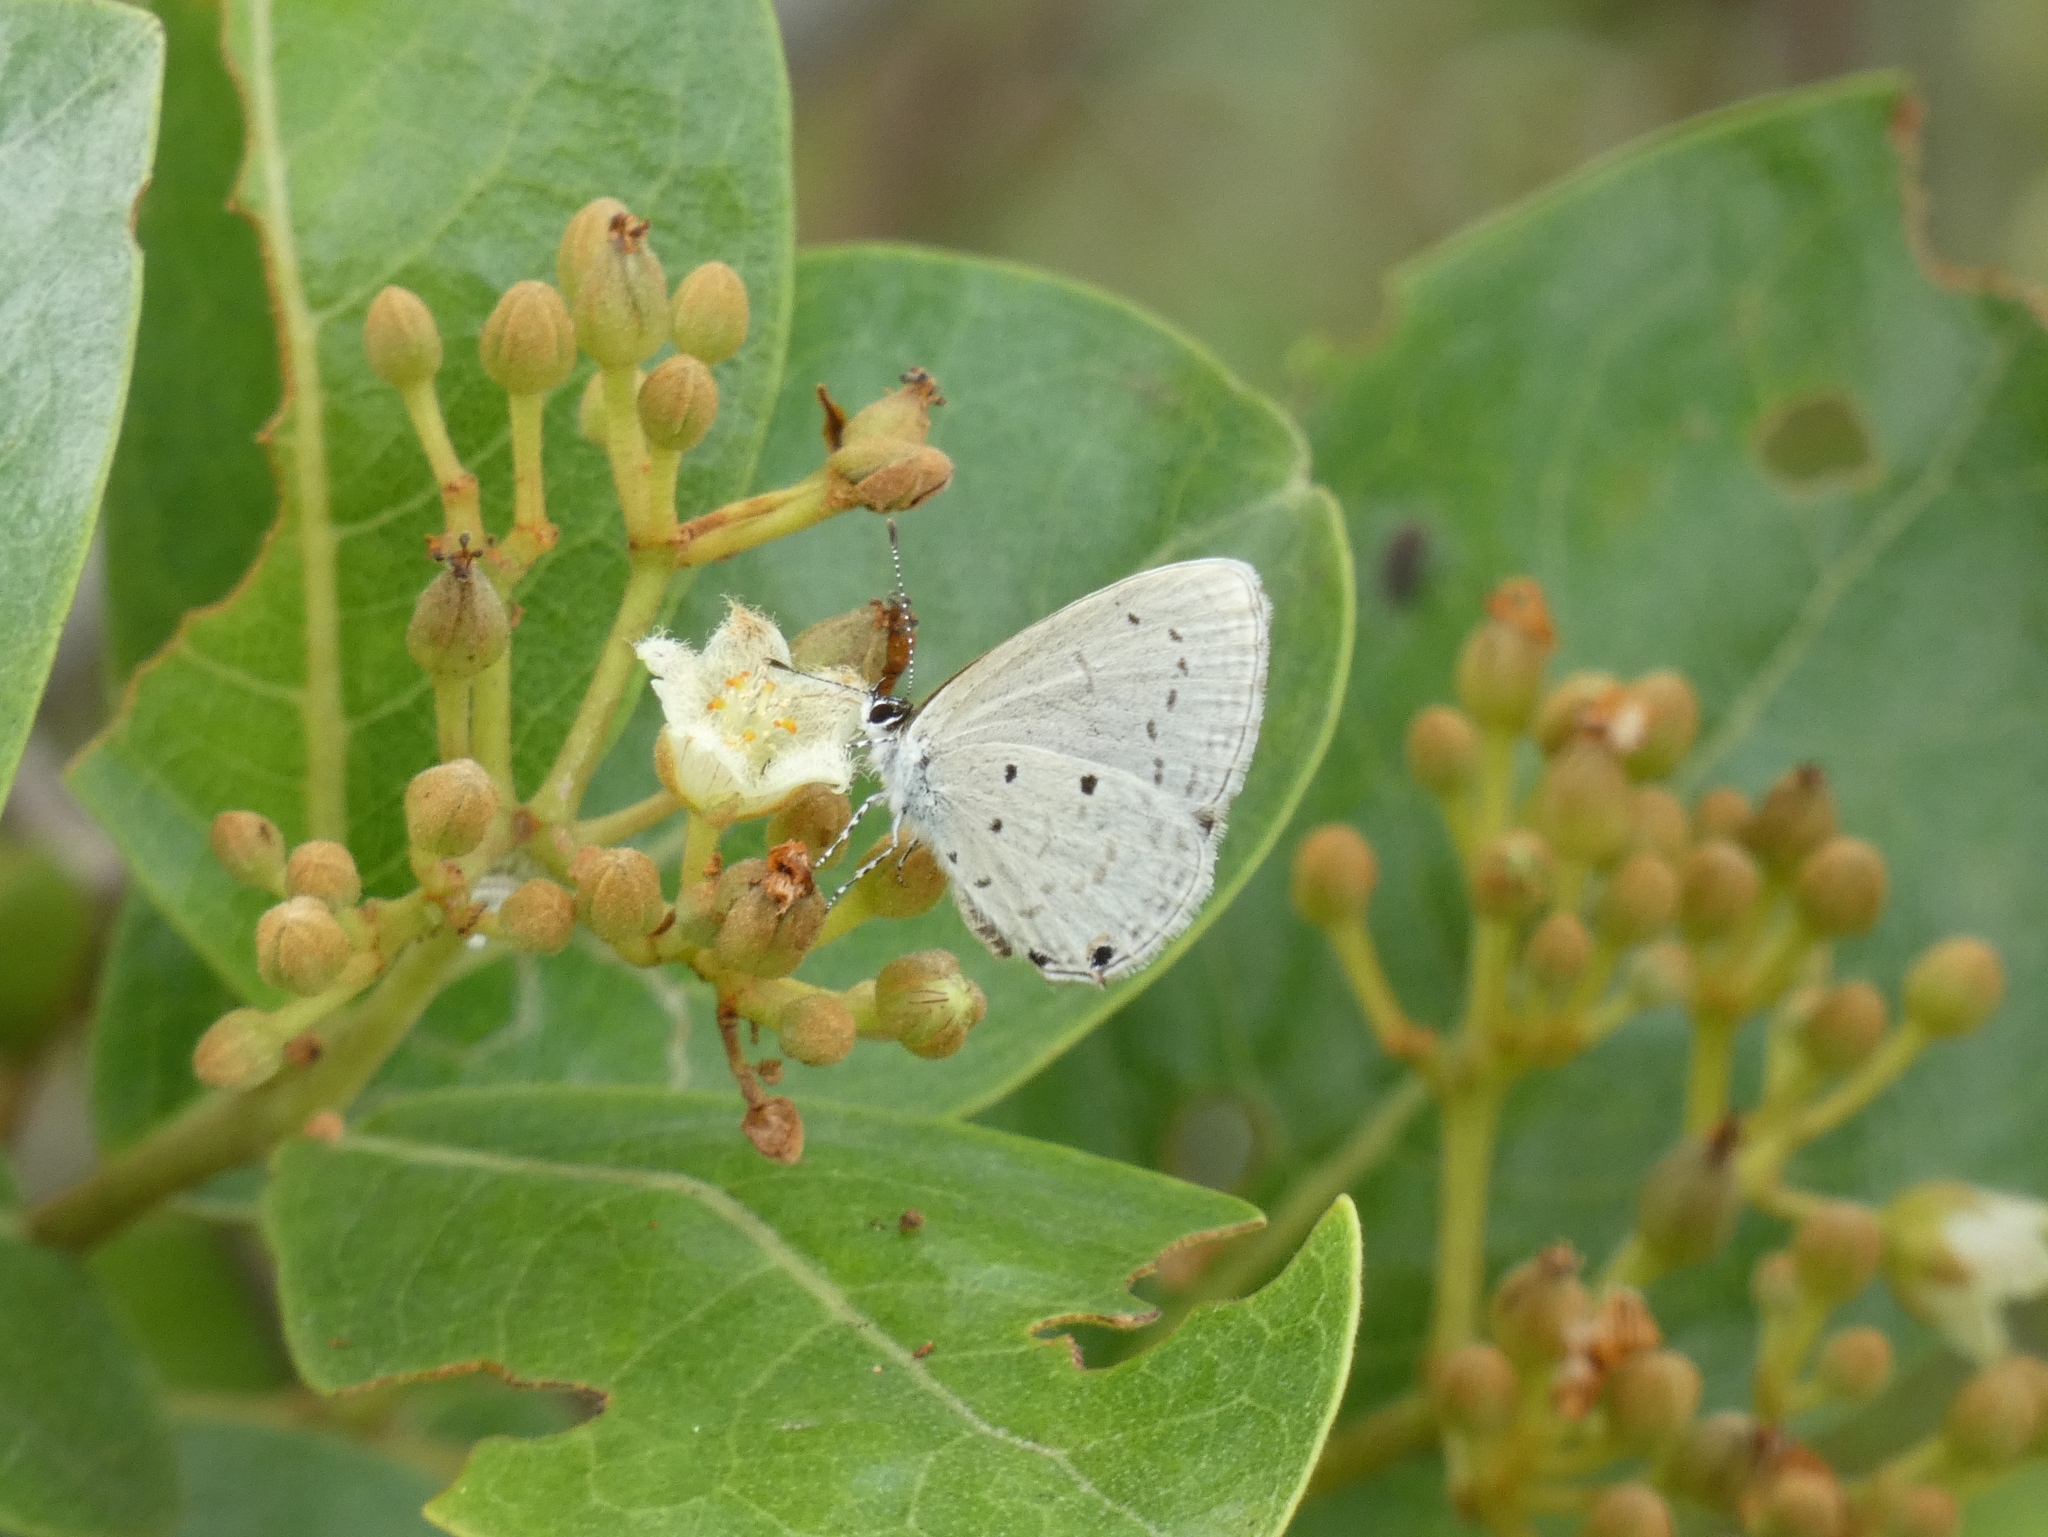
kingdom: Animalia
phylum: Arthropoda
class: Insecta
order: Lepidoptera
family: Lycaenidae
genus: Eicochrysops
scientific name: Eicochrysops hippocrates
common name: White-tipped blue
